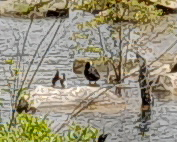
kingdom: Animalia
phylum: Chordata
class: Aves
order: Gruiformes
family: Rallidae
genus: Fulica
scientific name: Fulica atra
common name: Eurasian coot
